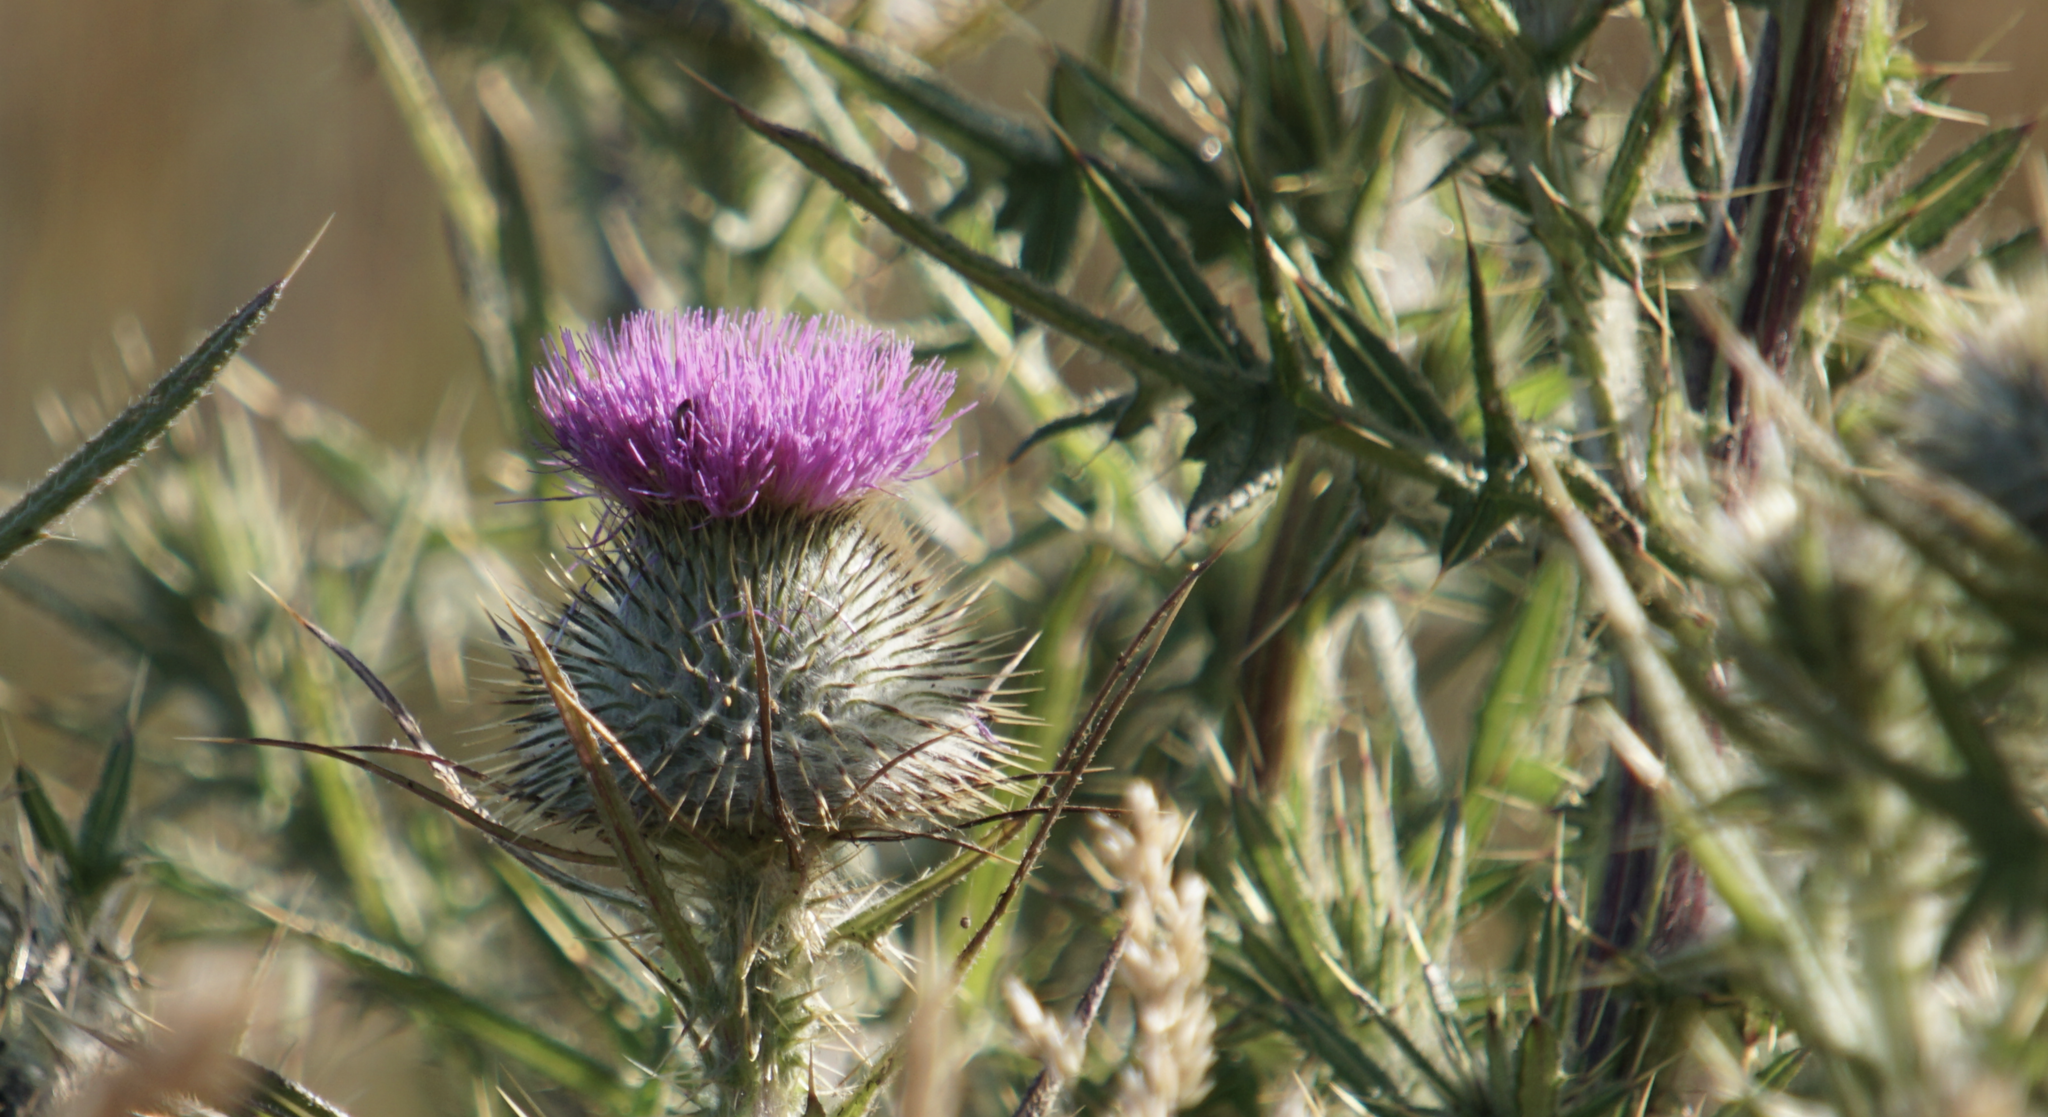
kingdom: Plantae
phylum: Tracheophyta
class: Magnoliopsida
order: Asterales
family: Asteraceae
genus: Cirsium
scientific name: Cirsium vulgare
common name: Bull thistle
